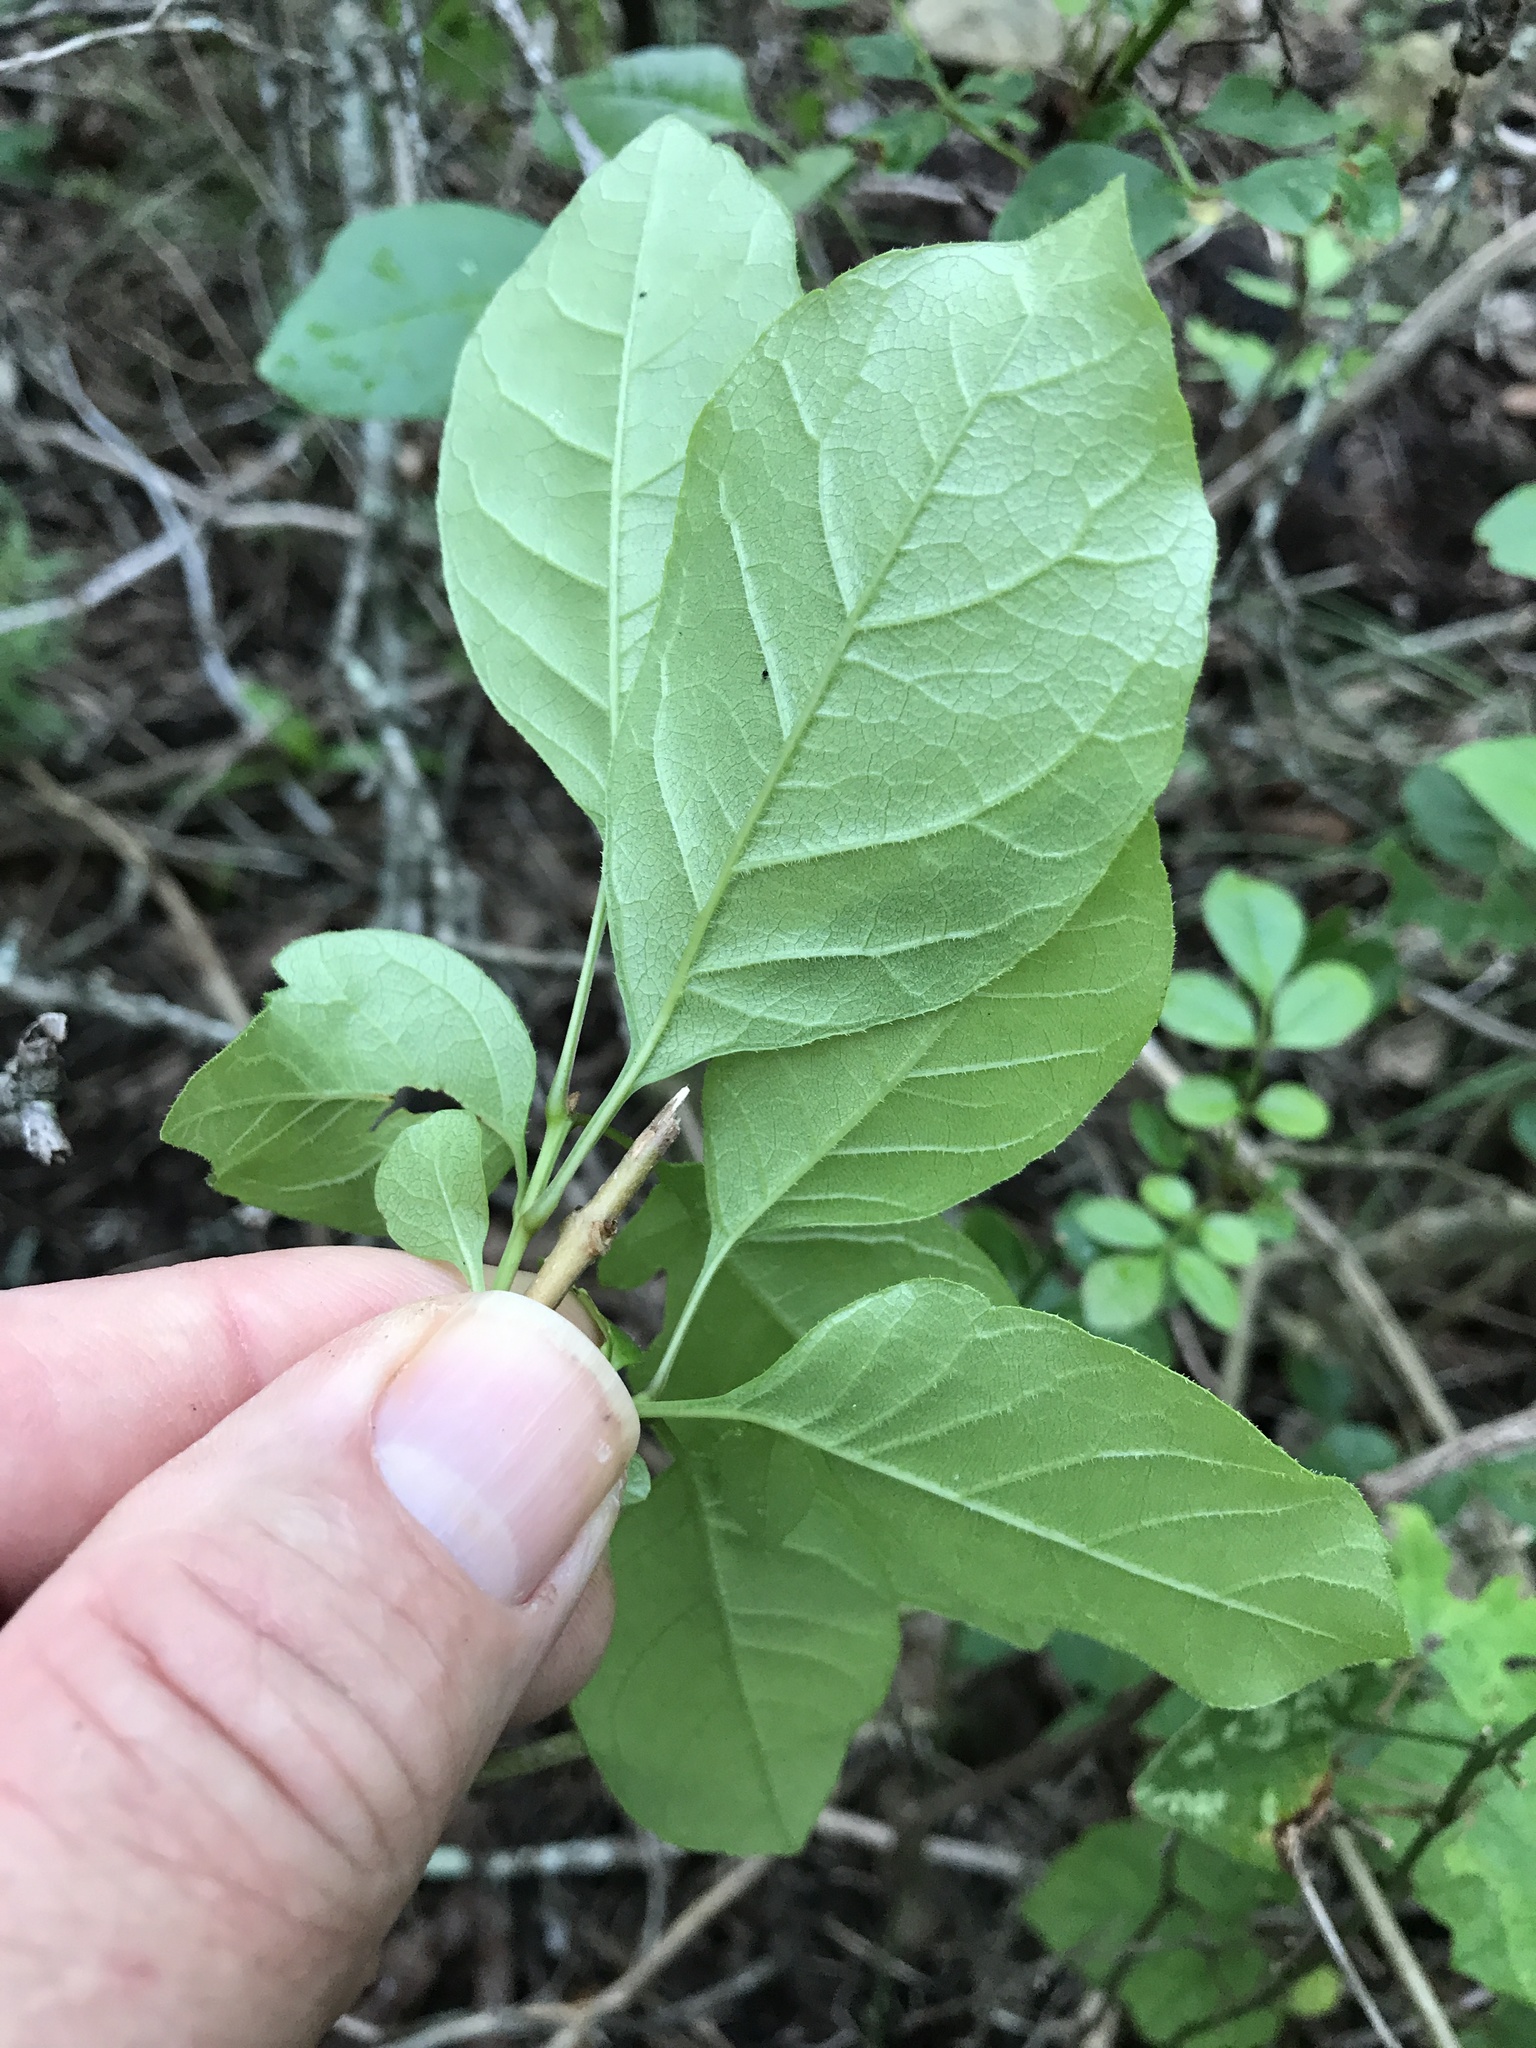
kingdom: Plantae
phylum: Tracheophyta
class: Magnoliopsida
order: Lamiales
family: Oleaceae
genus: Fraxinus
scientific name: Fraxinus albicans
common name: Texas ash
